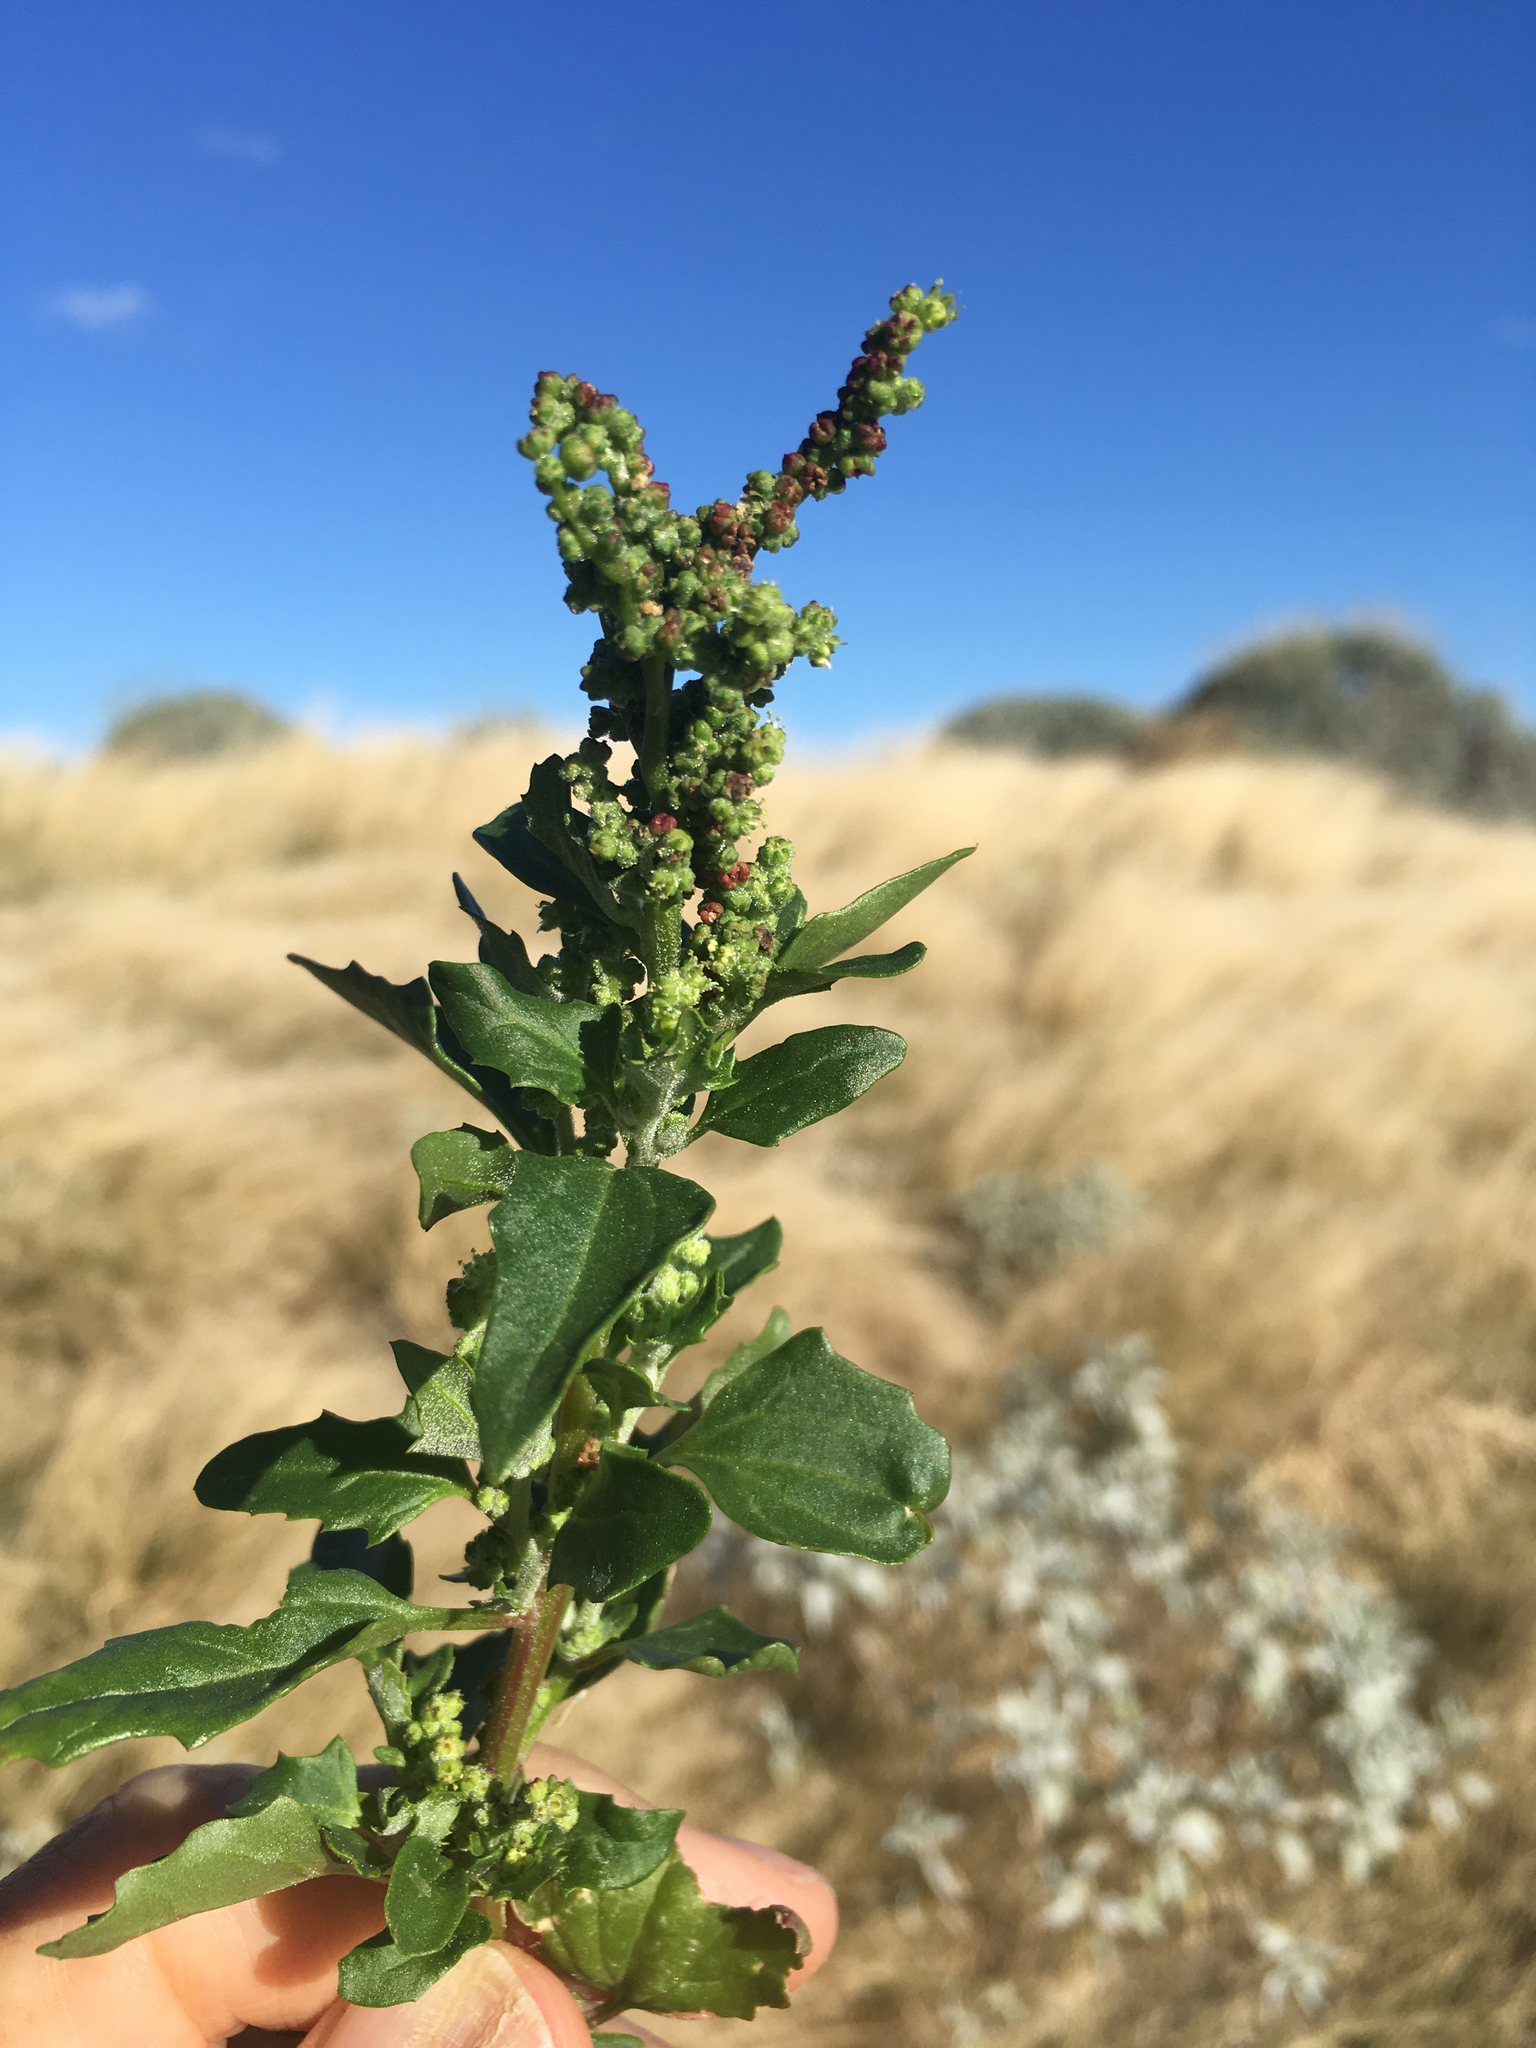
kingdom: Plantae
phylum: Tracheophyta
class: Magnoliopsida
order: Caryophyllales
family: Amaranthaceae
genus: Chenopodiastrum
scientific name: Chenopodiastrum murale
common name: Sowbane
